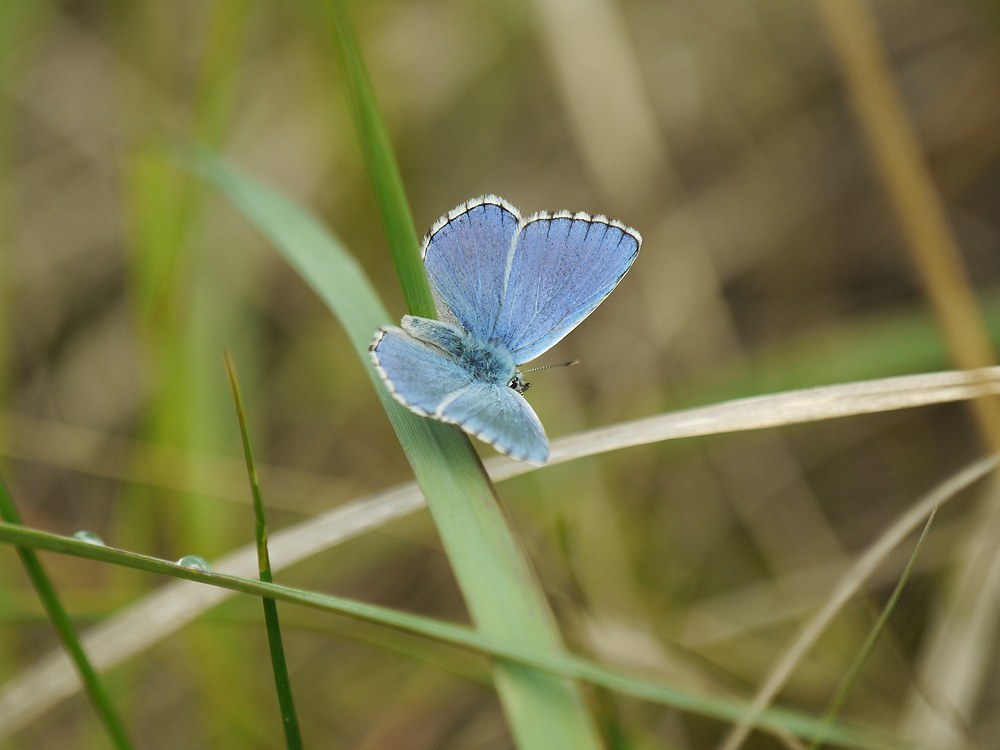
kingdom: Animalia
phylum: Arthropoda
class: Insecta
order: Lepidoptera
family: Lycaenidae
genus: Lysandra
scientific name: Lysandra bellargus
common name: Adonis blue
